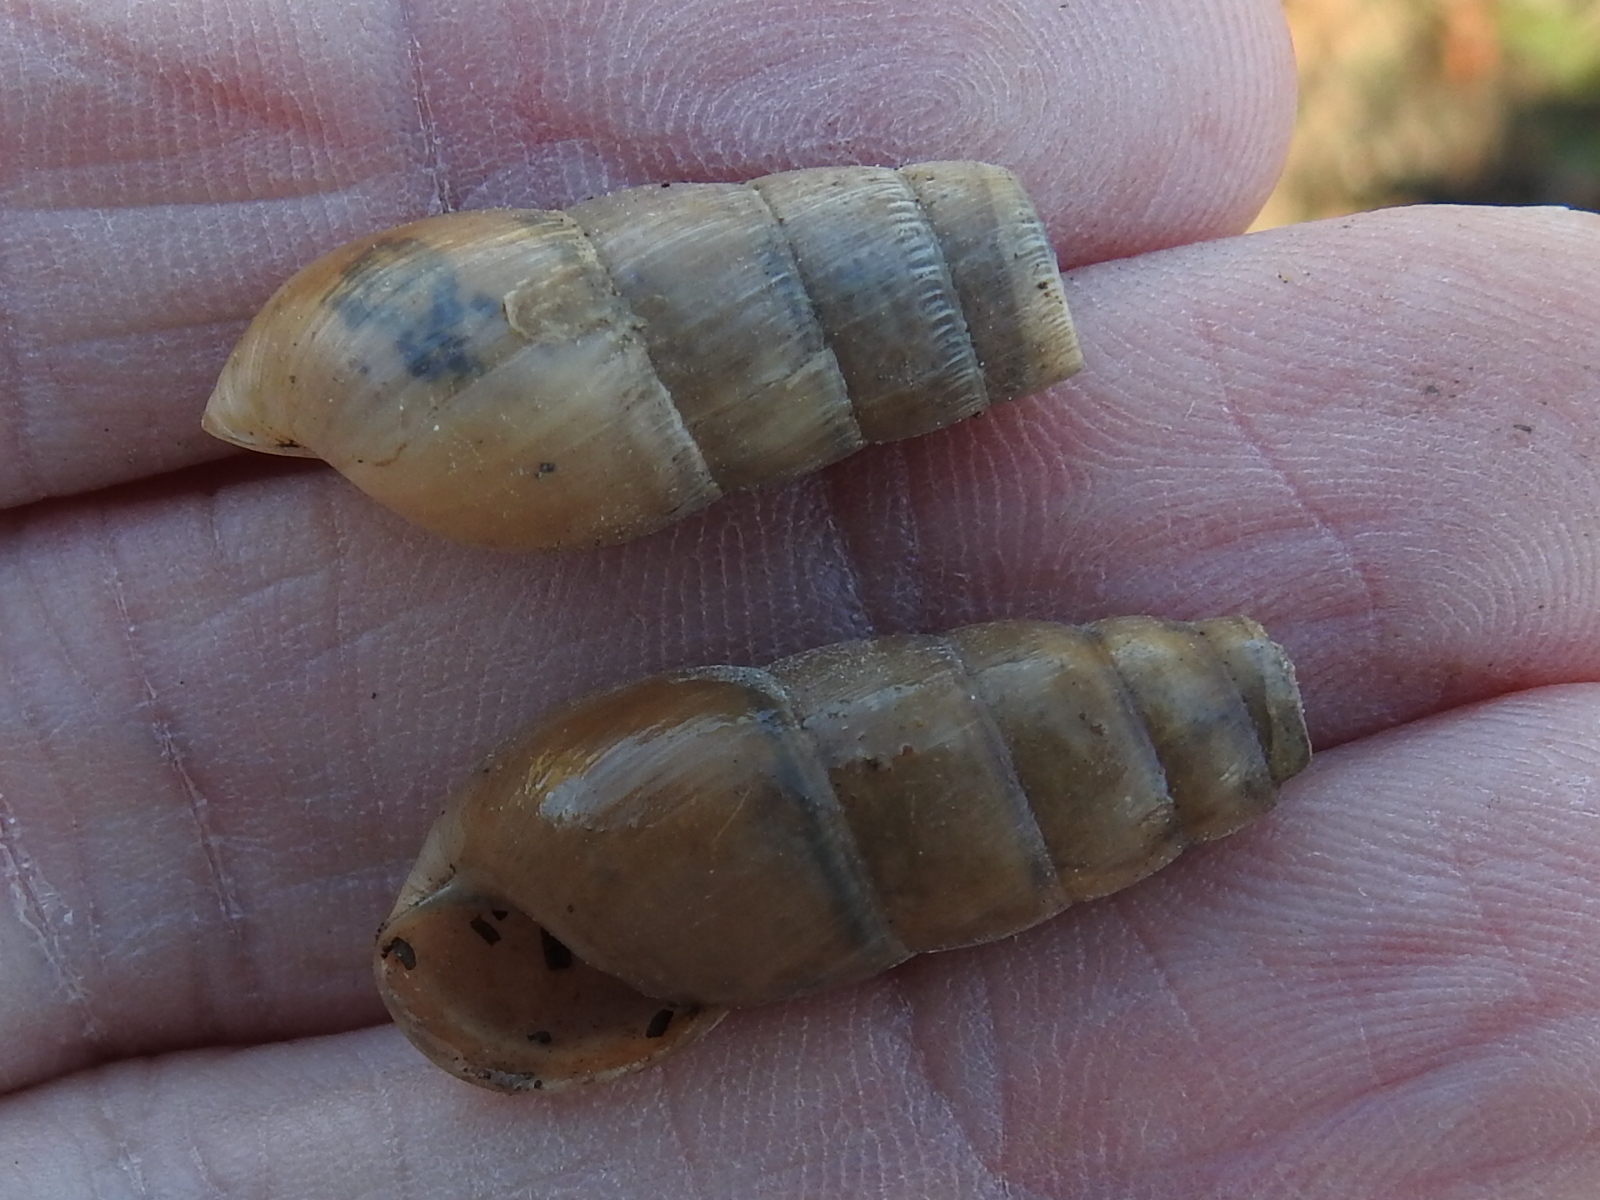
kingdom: Animalia
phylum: Mollusca
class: Gastropoda
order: Stylommatophora
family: Achatinidae
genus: Rumina
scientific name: Rumina decollata
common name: Decollate snail
